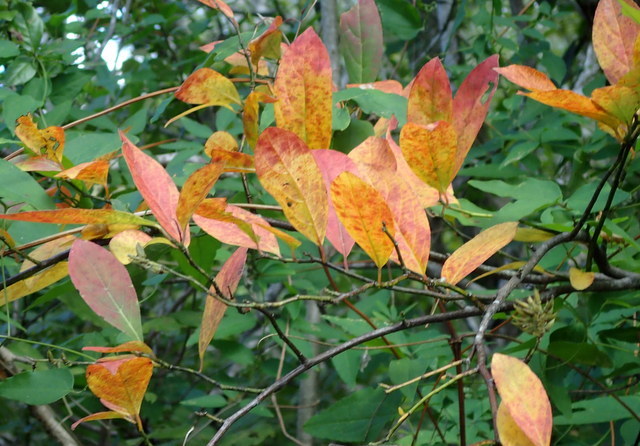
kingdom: Plantae
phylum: Tracheophyta
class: Magnoliopsida
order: Saxifragales
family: Iteaceae
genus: Itea
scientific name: Itea virginica
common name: Sweetspire
